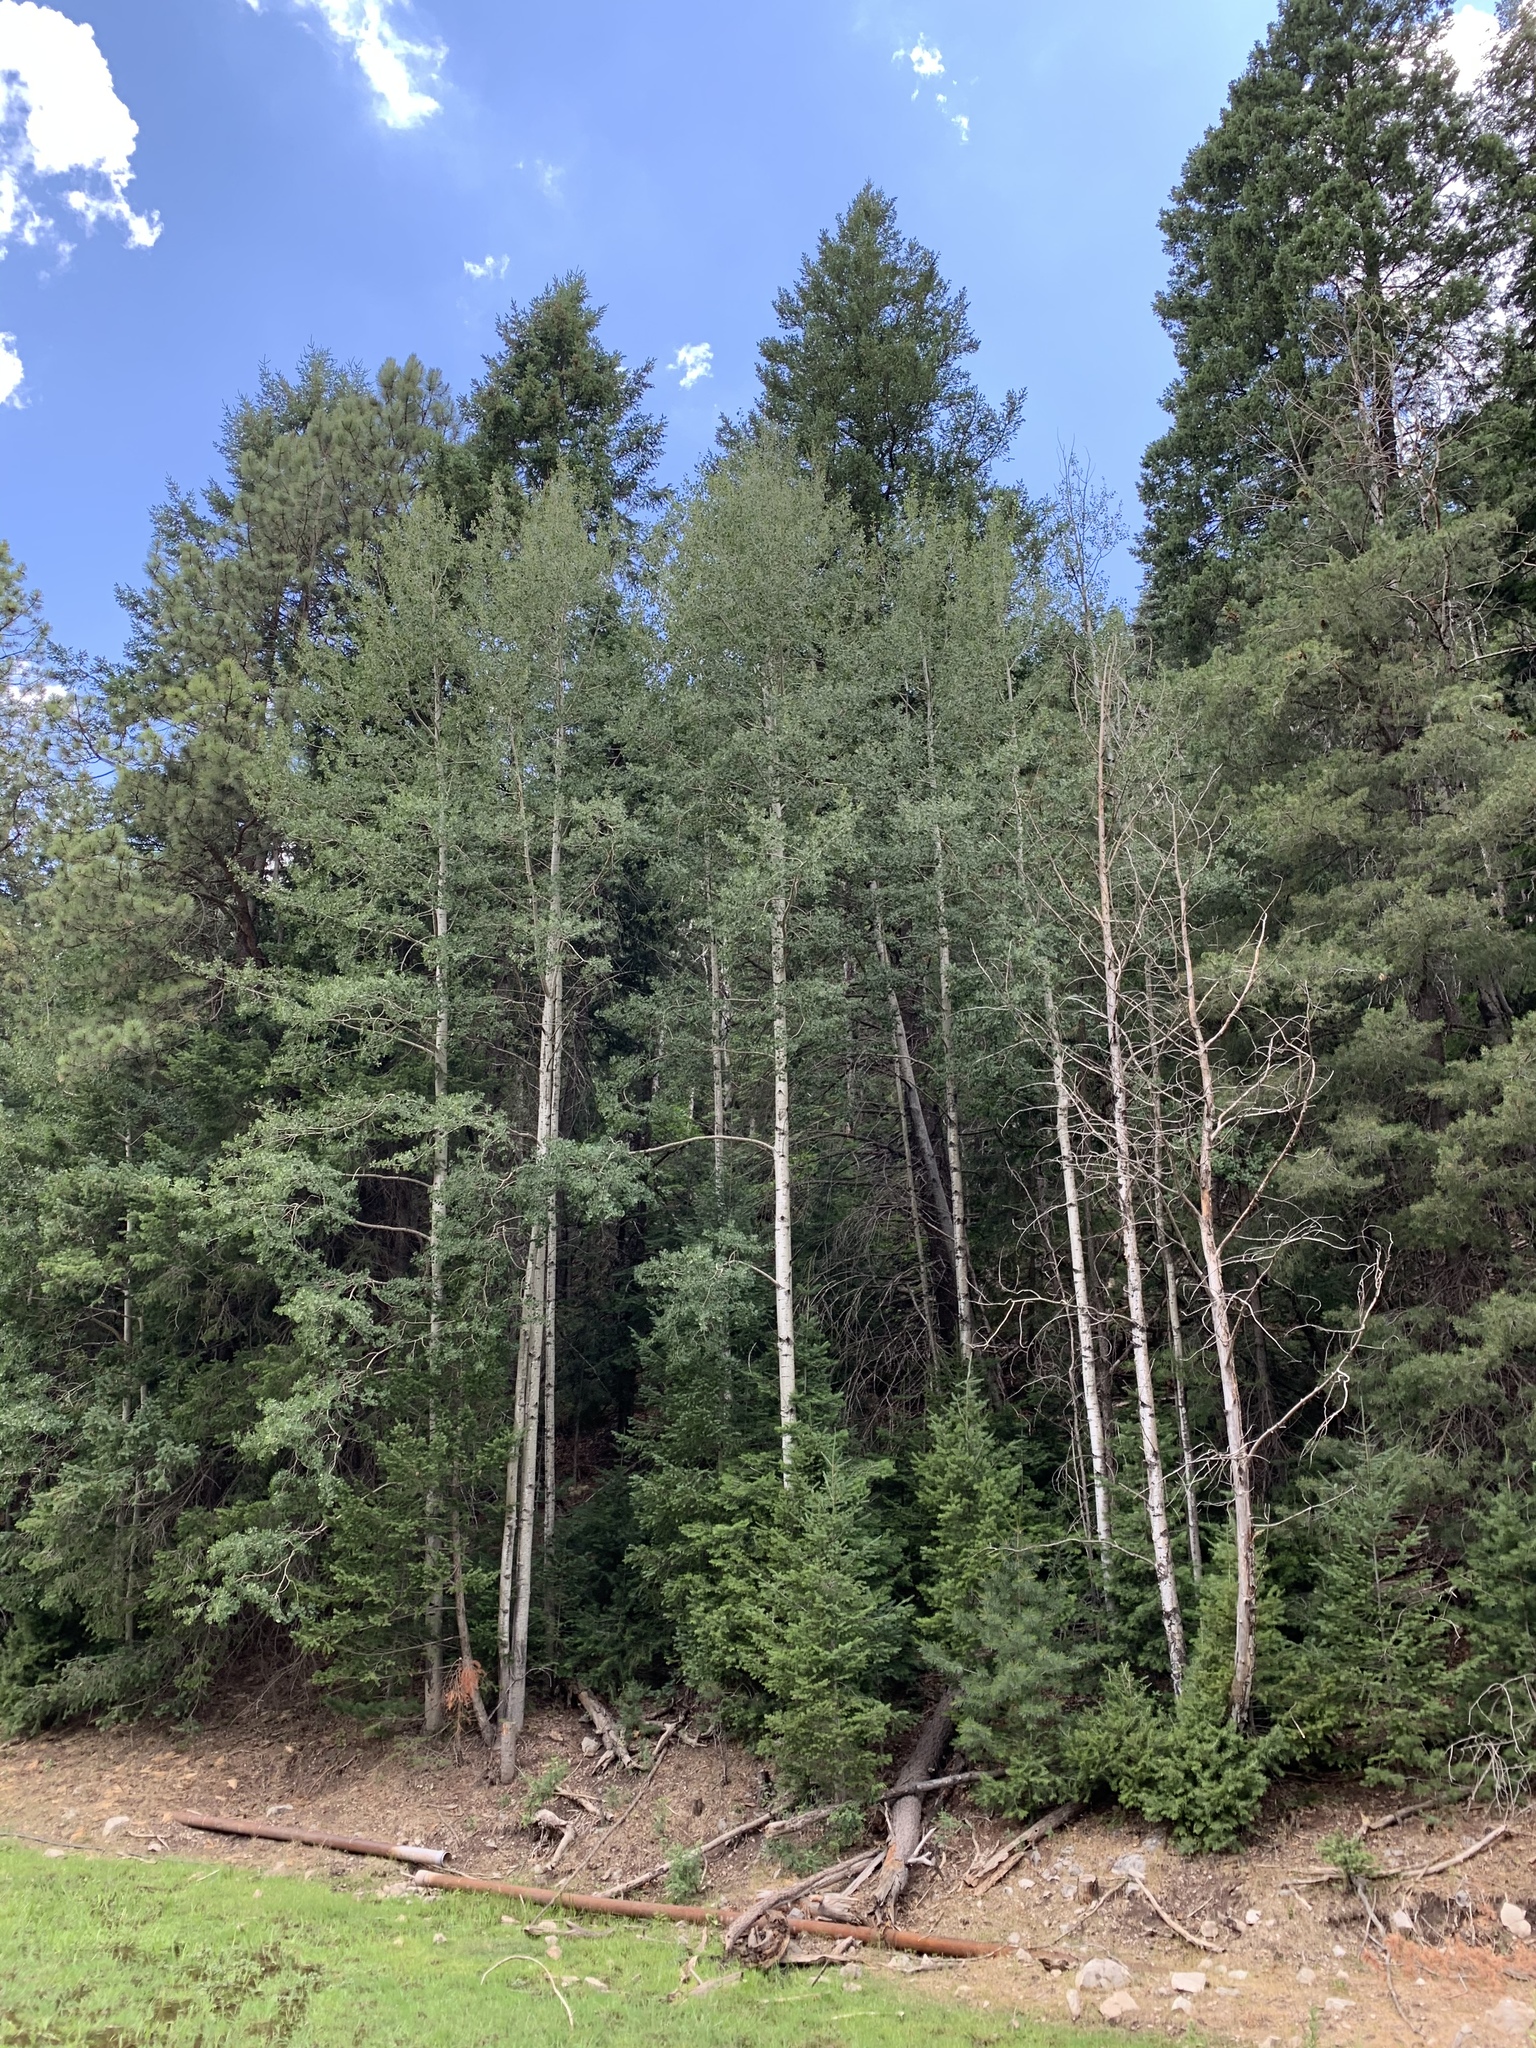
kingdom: Plantae
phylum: Tracheophyta
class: Magnoliopsida
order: Malpighiales
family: Salicaceae
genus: Populus
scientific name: Populus tremuloides
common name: Quaking aspen
